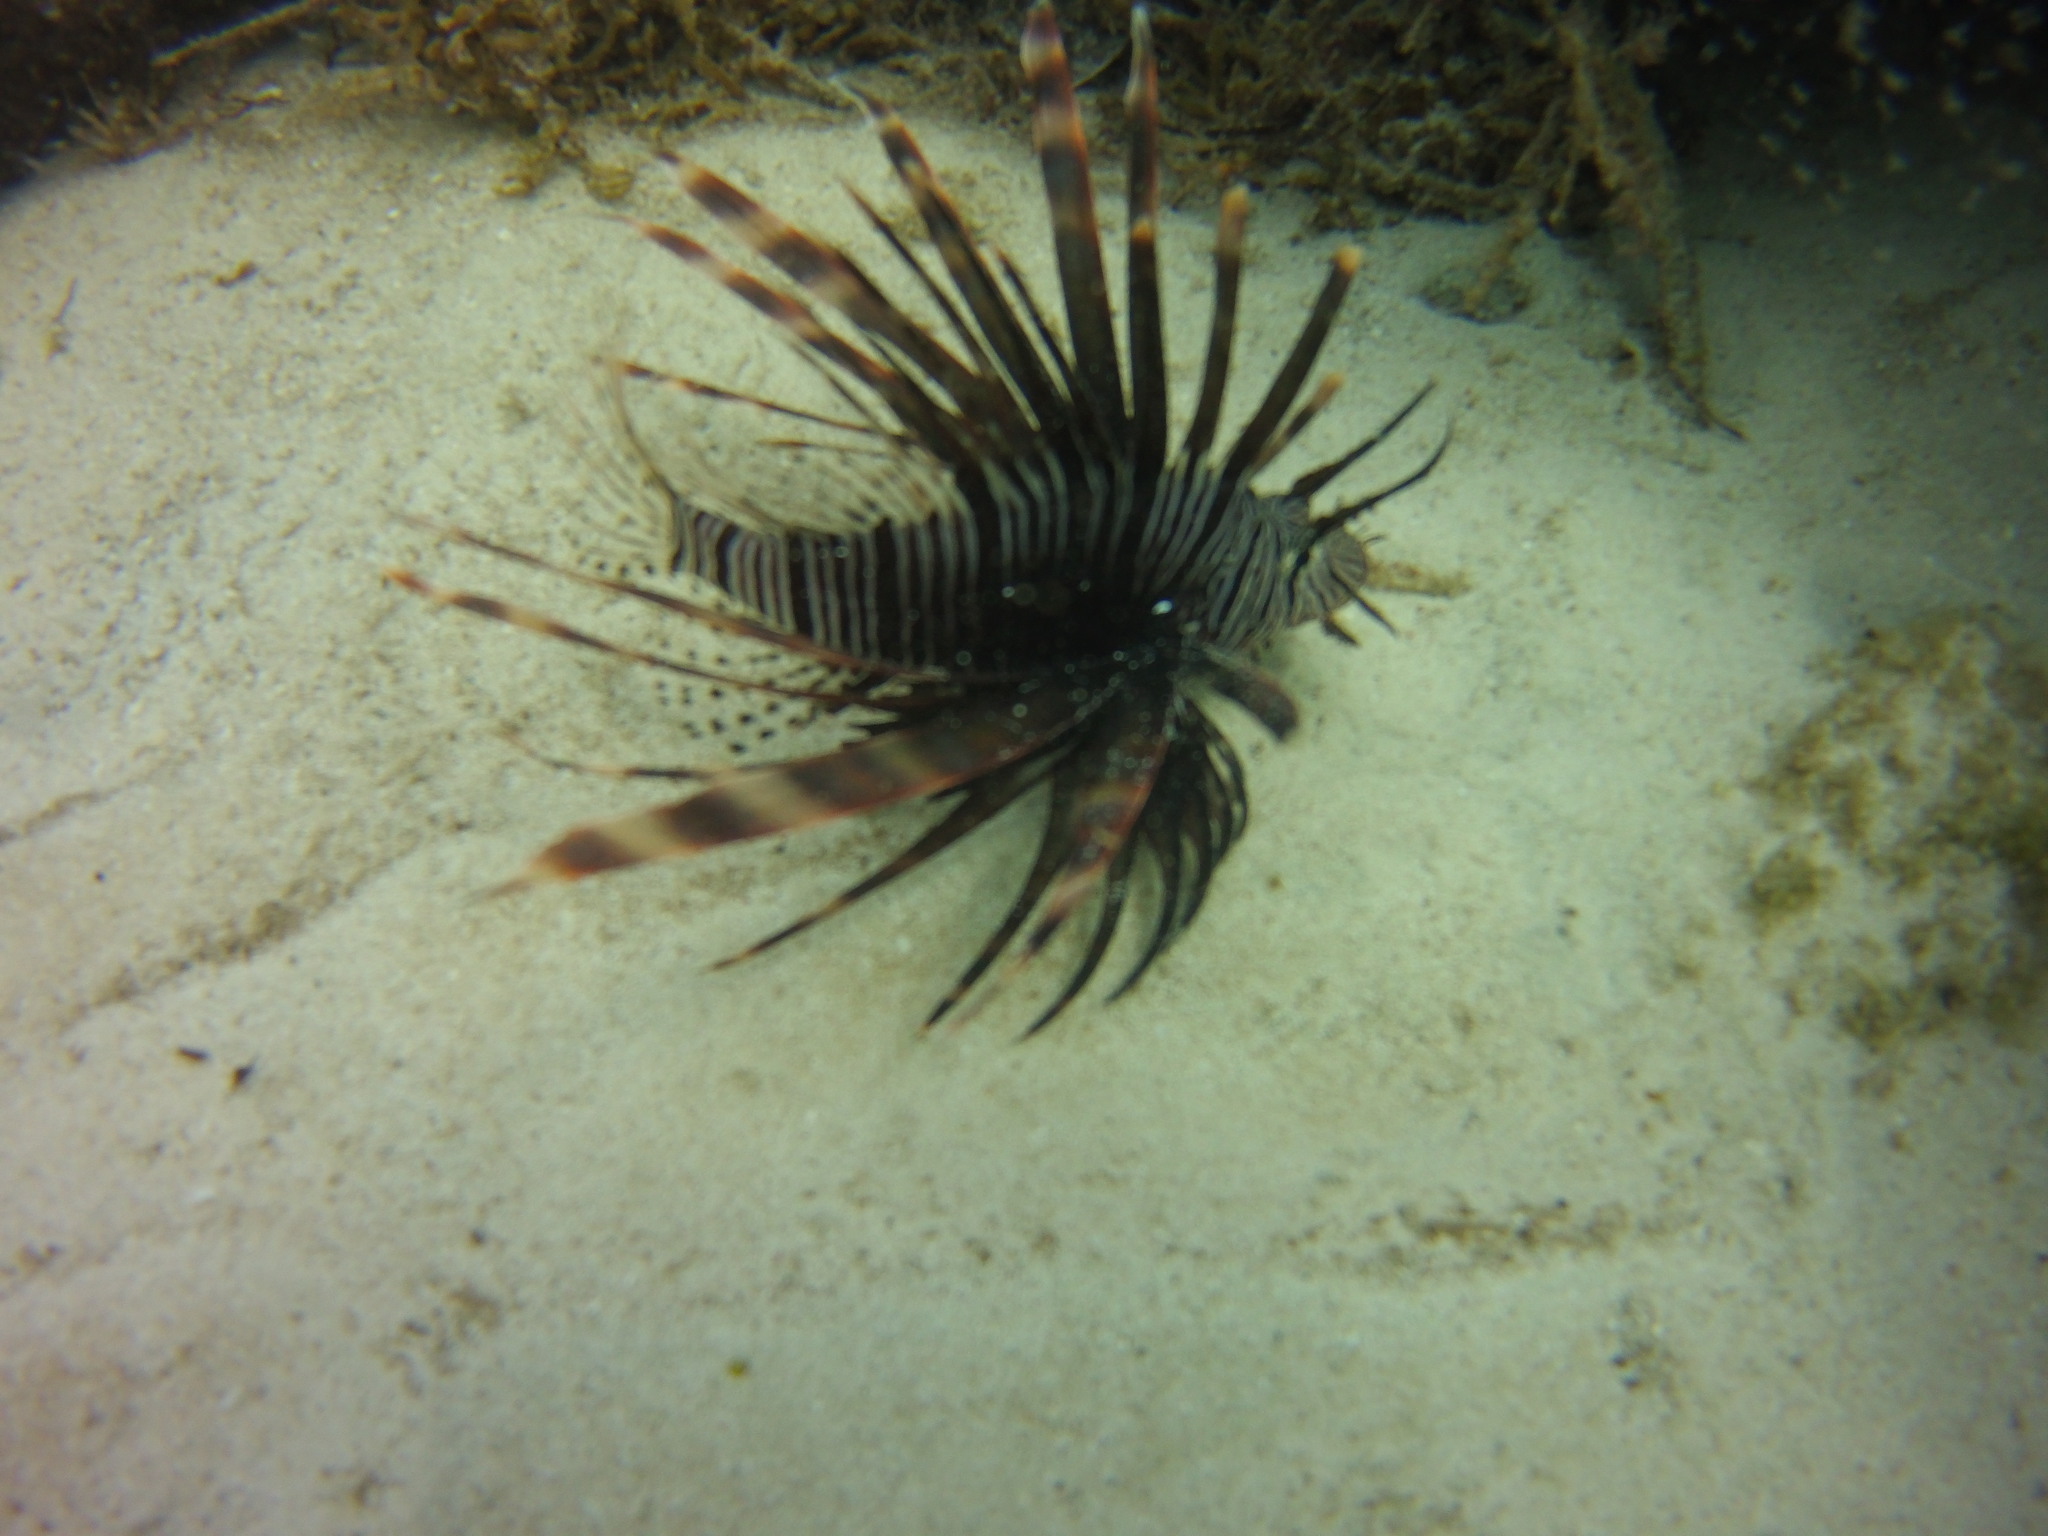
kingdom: Animalia
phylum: Chordata
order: Scorpaeniformes
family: Scorpaenidae
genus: Pterois
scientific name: Pterois volitans
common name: Lionfish
